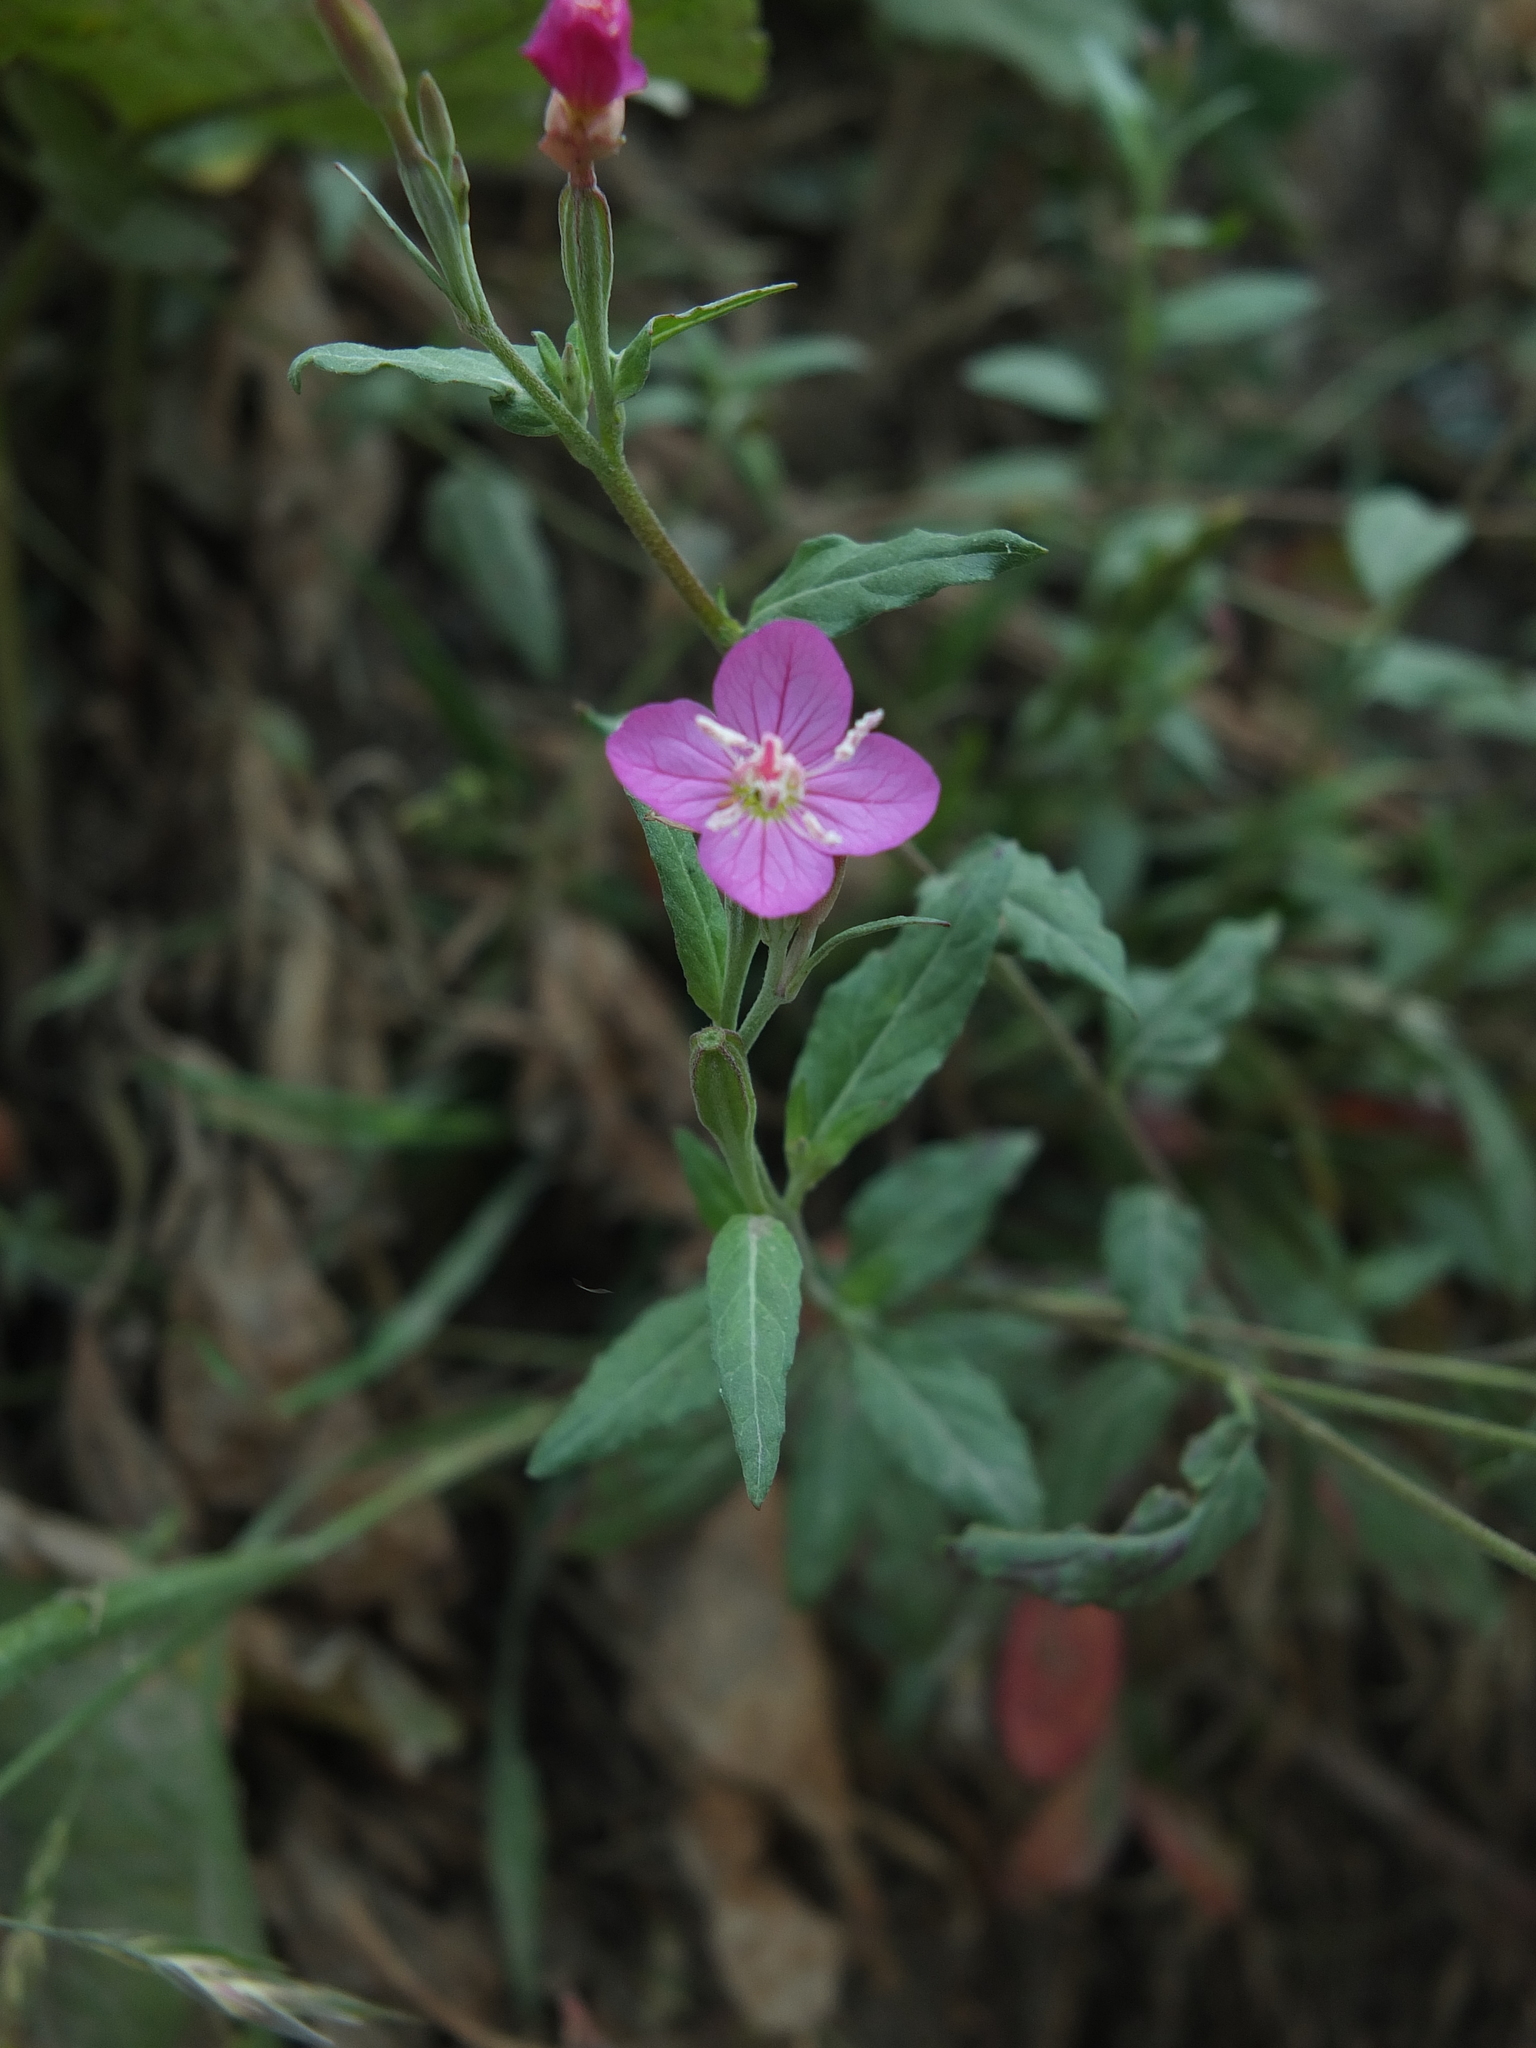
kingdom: Plantae
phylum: Tracheophyta
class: Magnoliopsida
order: Myrtales
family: Onagraceae
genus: Oenothera
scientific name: Oenothera rosea
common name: Rosy evening-primrose
